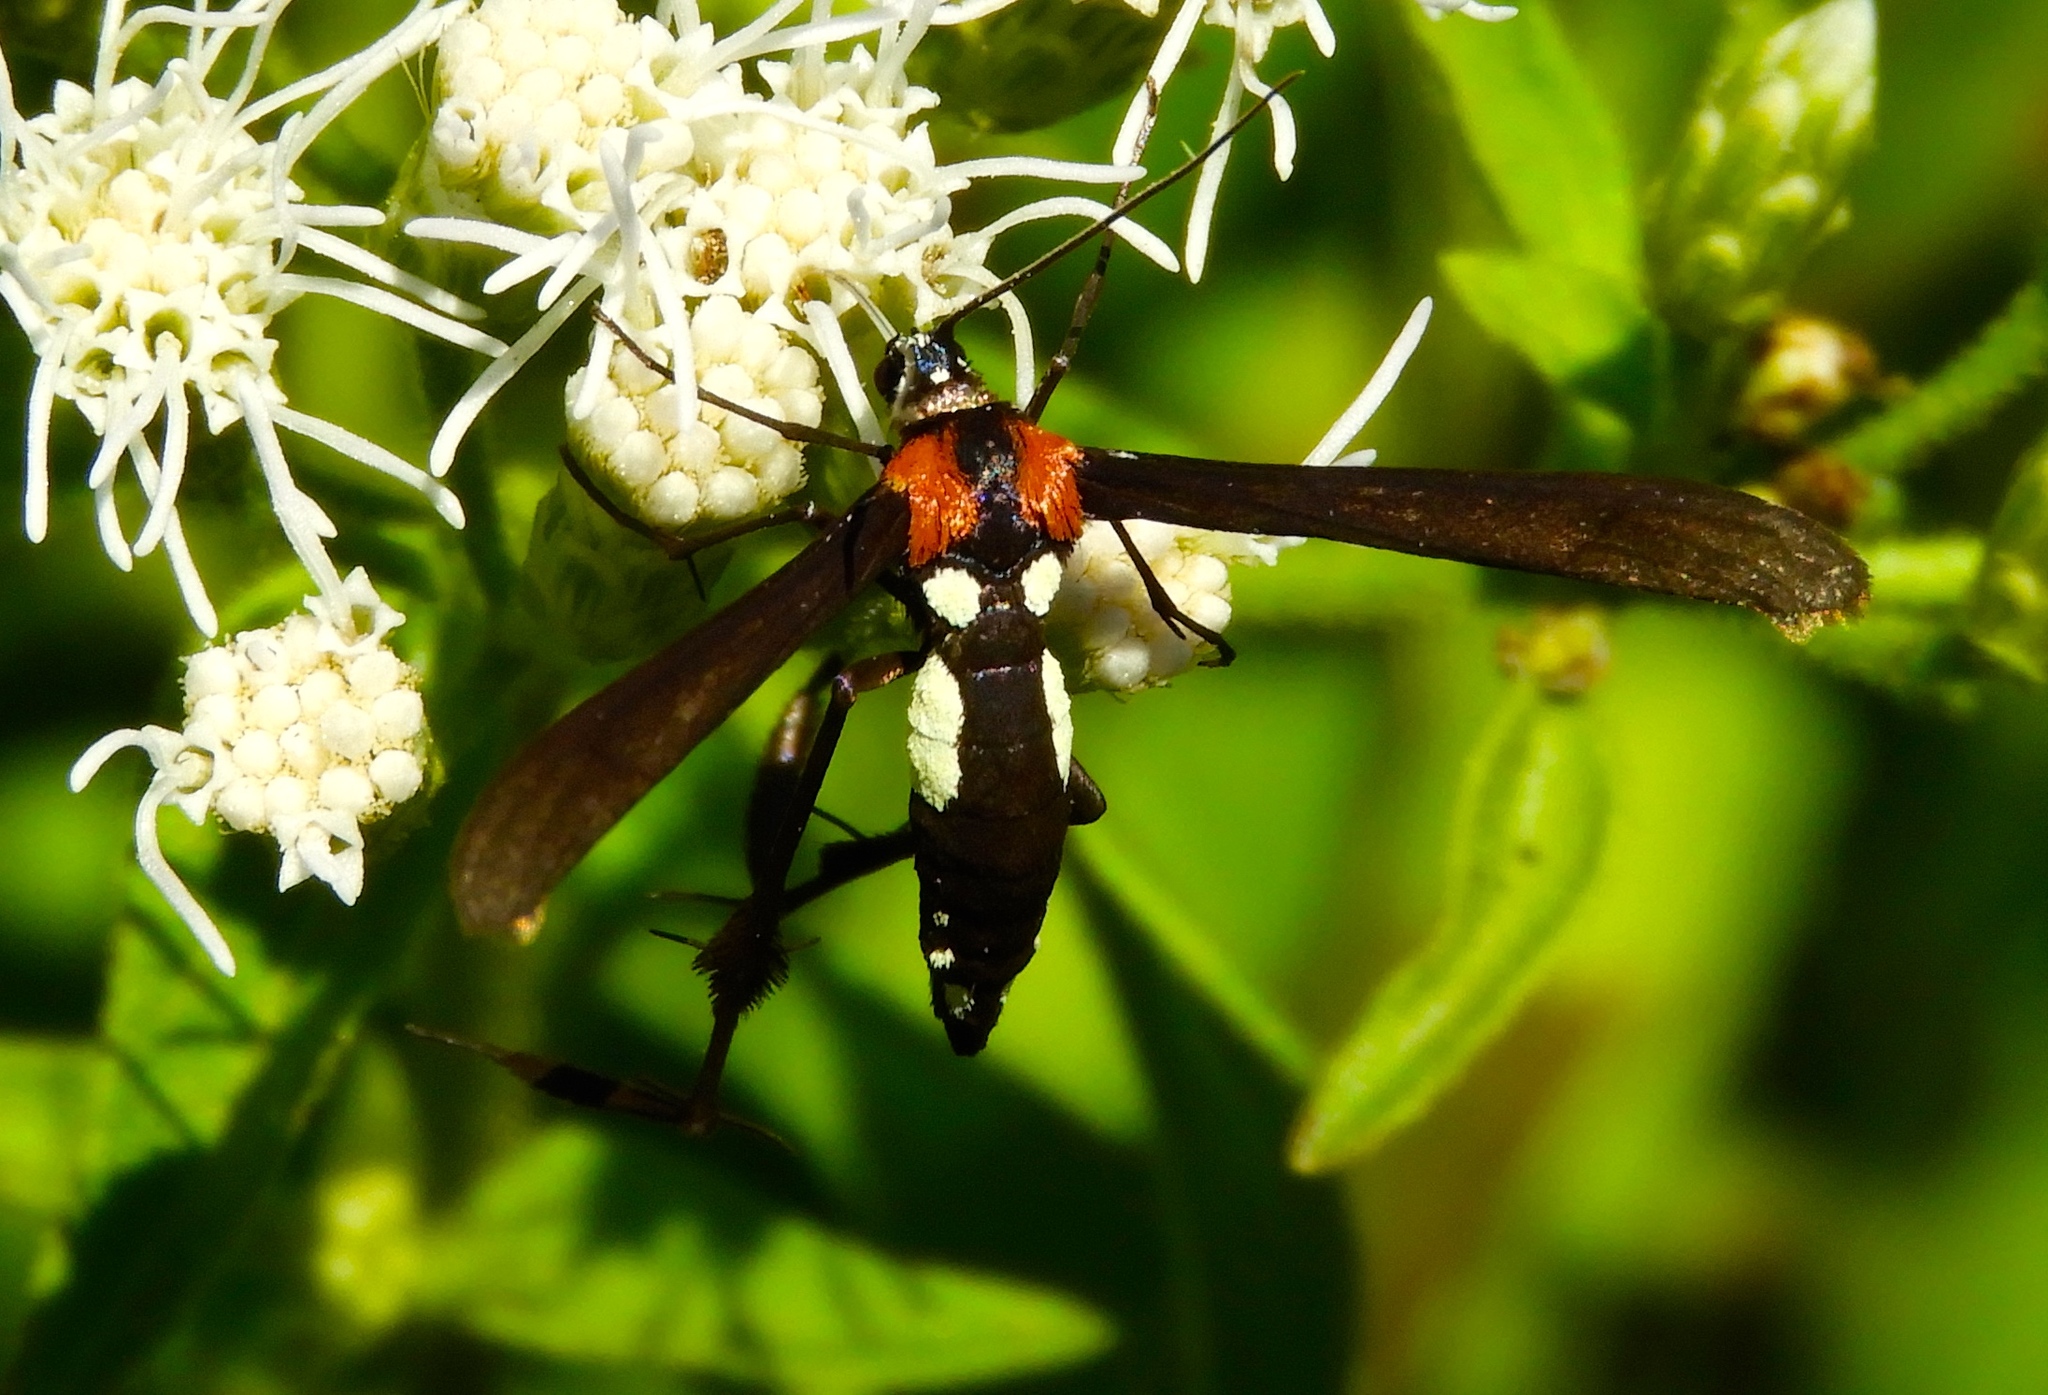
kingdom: Animalia
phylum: Arthropoda
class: Insecta
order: Lepidoptera
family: Pterophoridae
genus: Hellinsia
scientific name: Hellinsia chamelai
